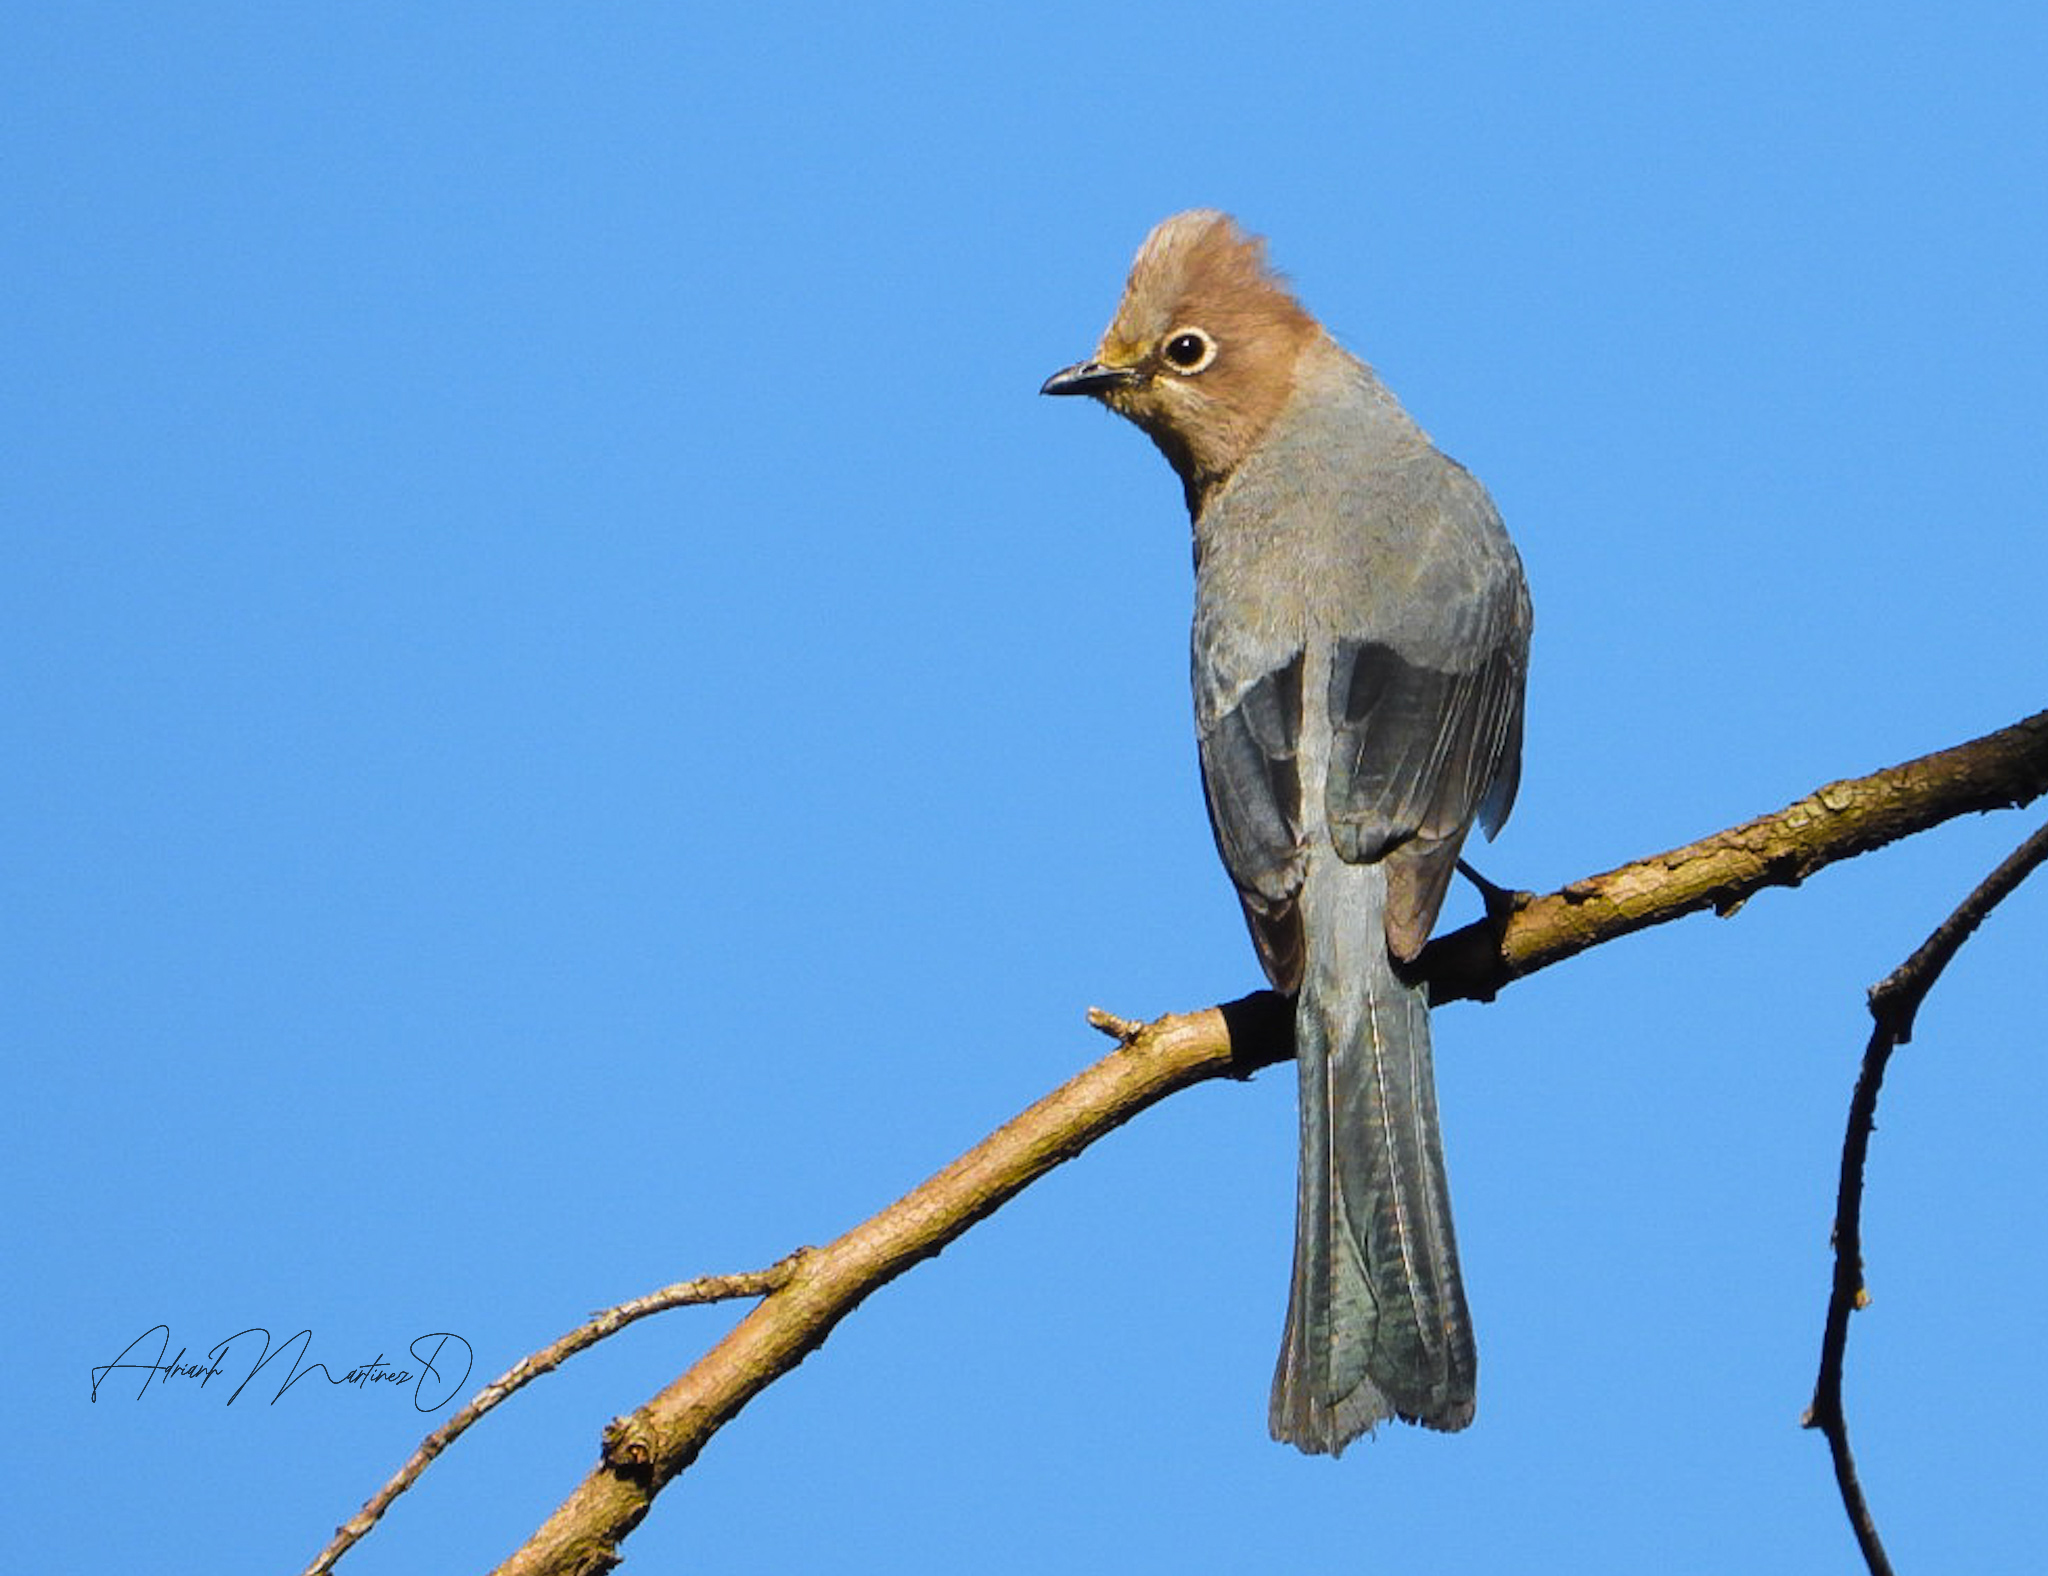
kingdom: Animalia
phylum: Chordata
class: Aves
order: Passeriformes
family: Ptilogonatidae
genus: Ptilogonys
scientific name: Ptilogonys cinereus
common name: Gray silky-flycatcher
